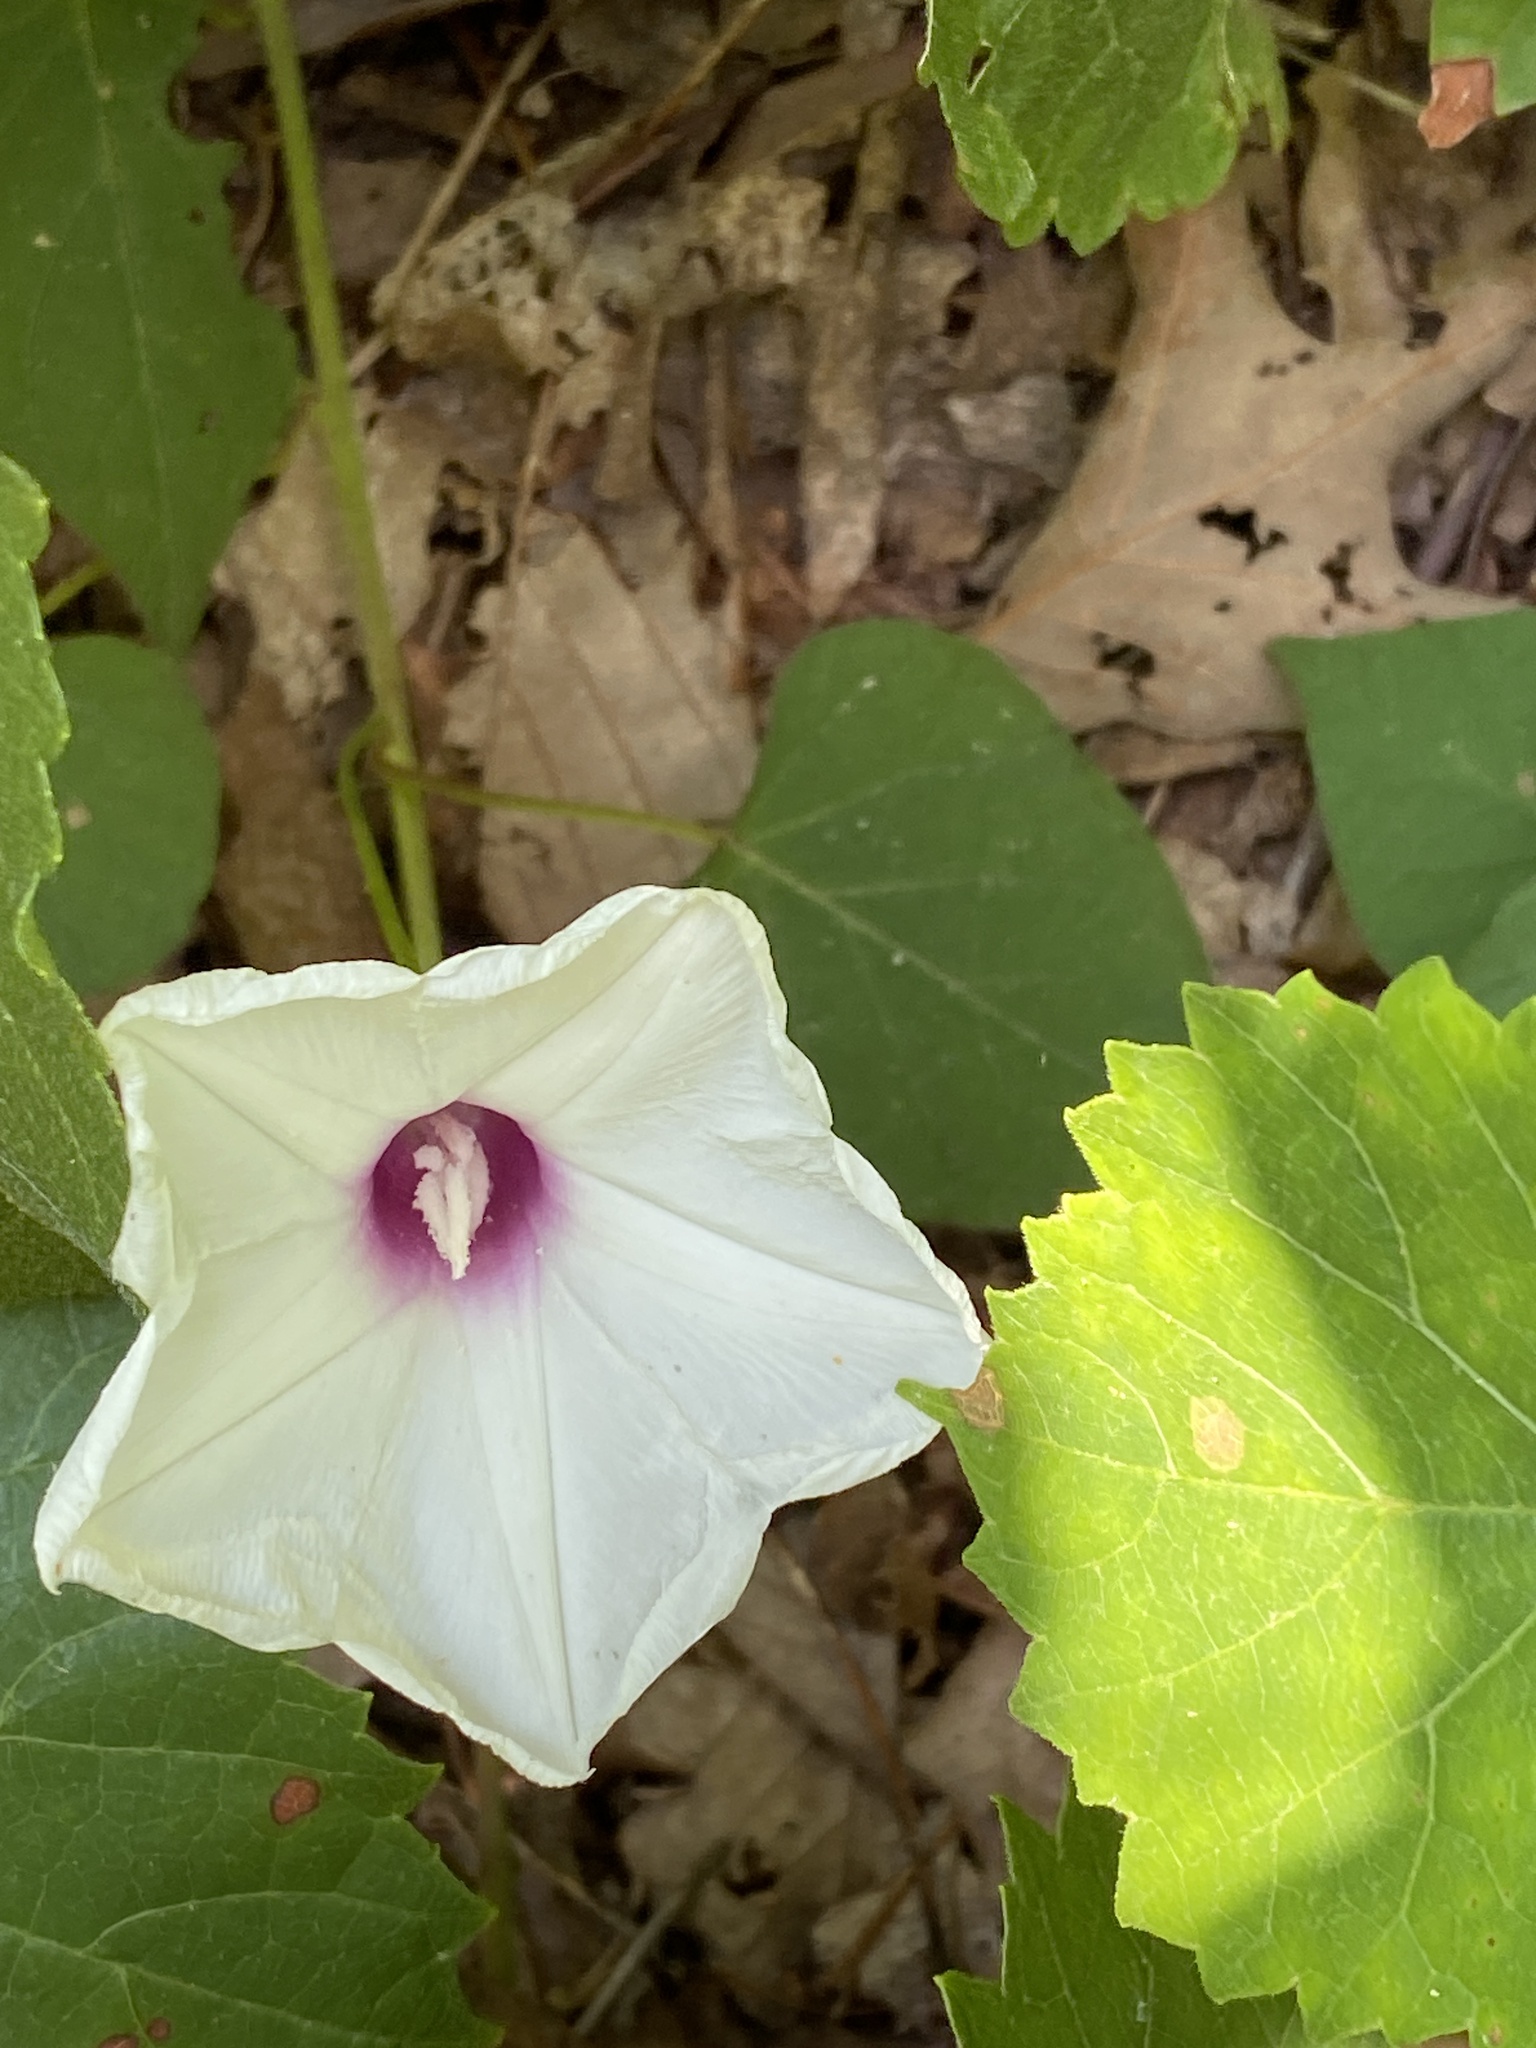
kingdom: Plantae
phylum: Tracheophyta
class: Magnoliopsida
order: Solanales
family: Convolvulaceae
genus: Ipomoea
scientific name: Ipomoea pandurata
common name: Man-of-the-earth
